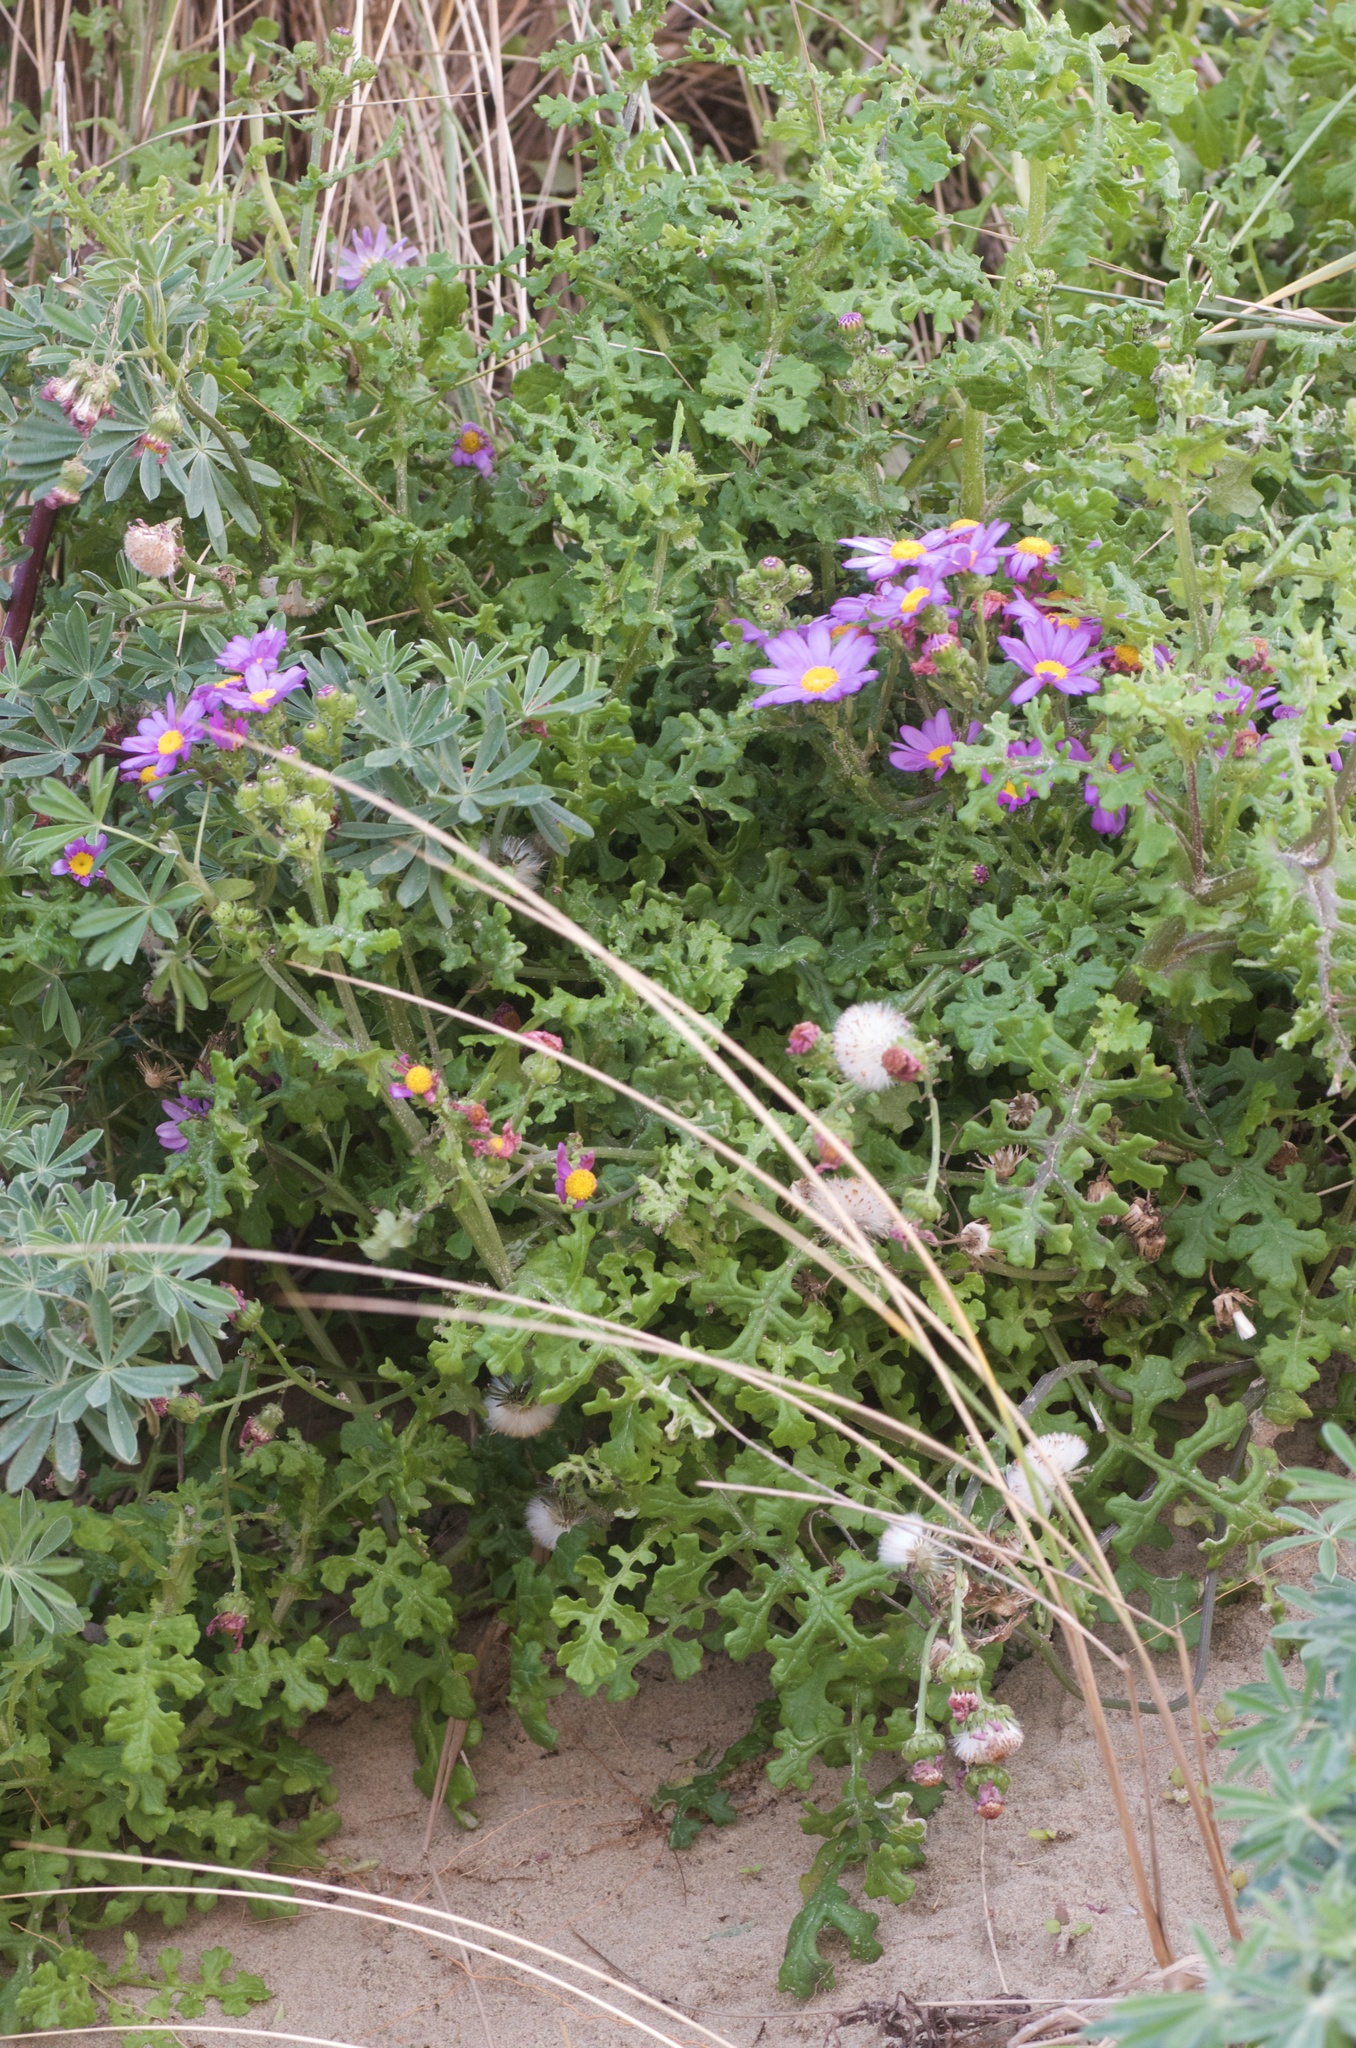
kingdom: Plantae
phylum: Tracheophyta
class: Magnoliopsida
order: Asterales
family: Asteraceae
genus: Senecio
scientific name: Senecio elegans
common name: Purple groundsel
